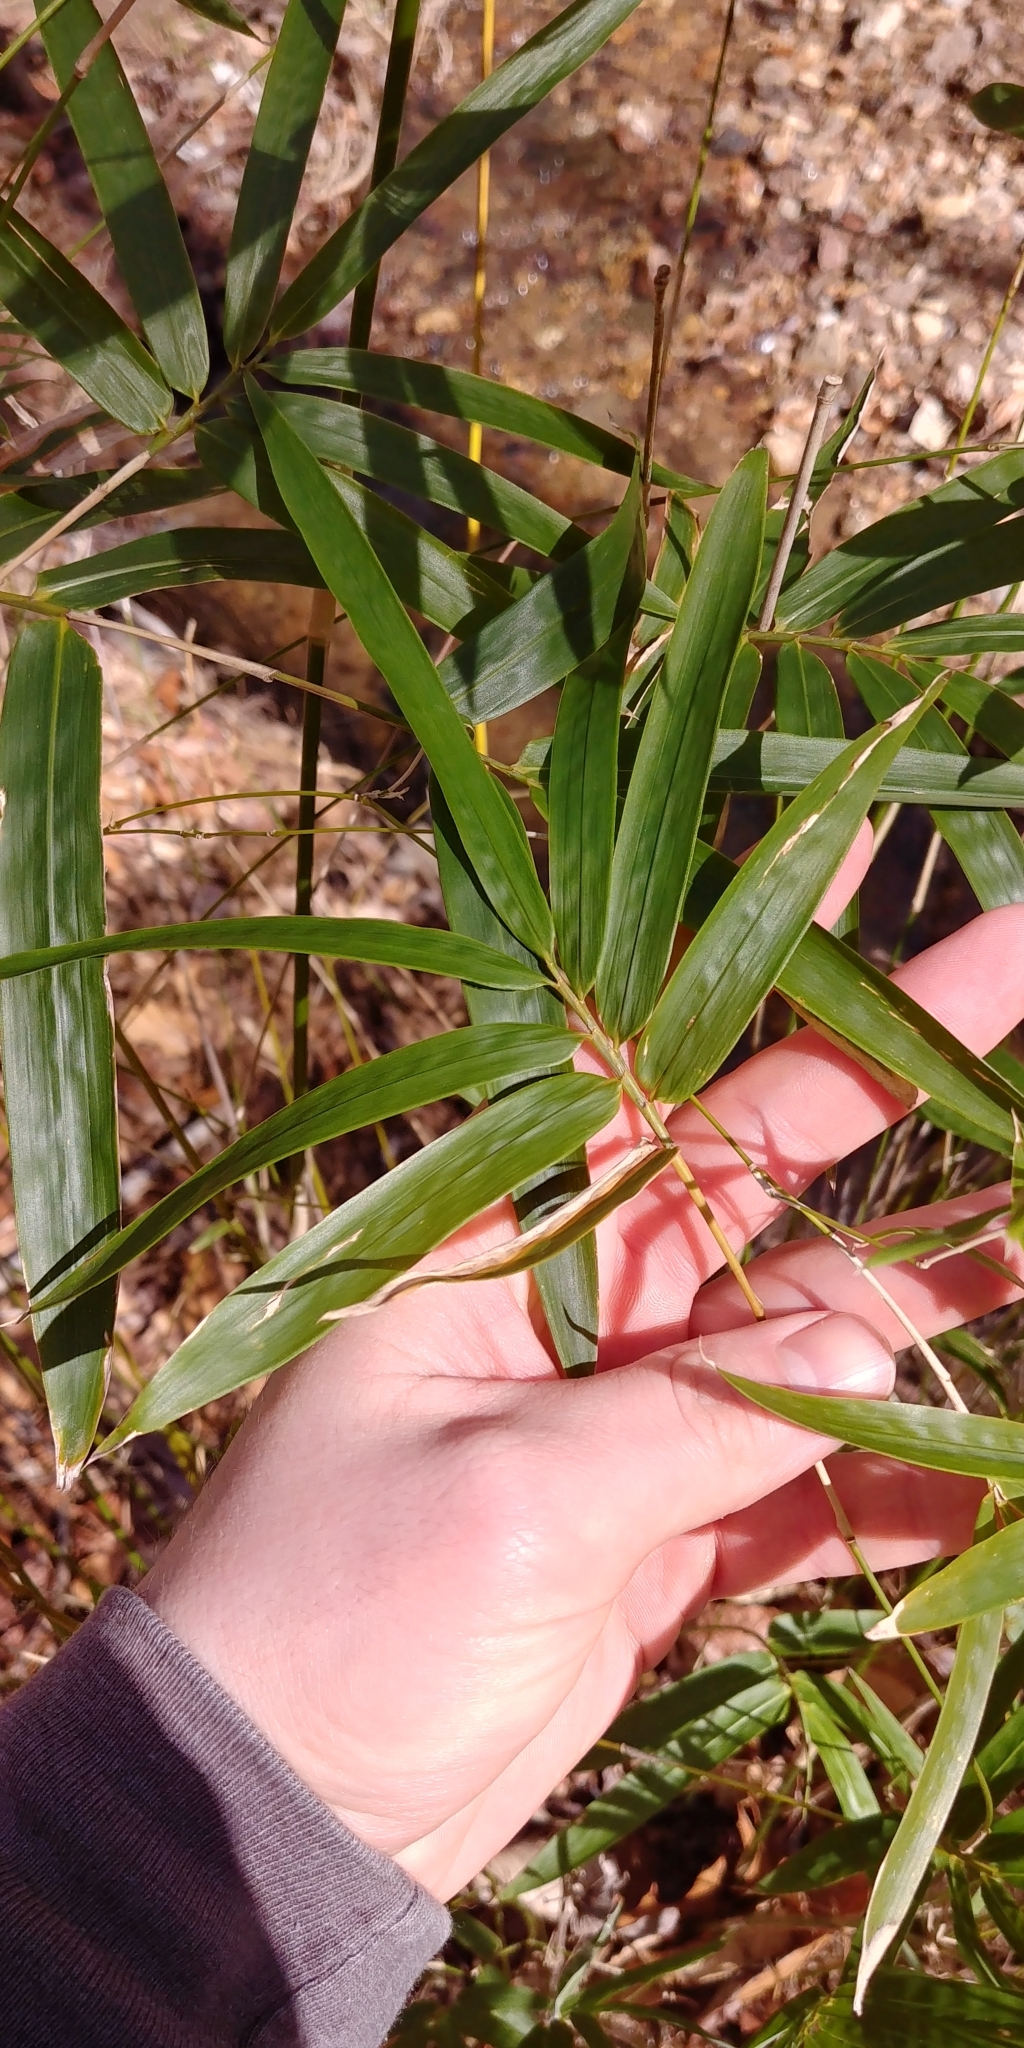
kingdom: Plantae
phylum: Tracheophyta
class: Liliopsida
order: Poales
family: Poaceae
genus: Arundinaria
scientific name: Arundinaria gigantea
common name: Giant cane
